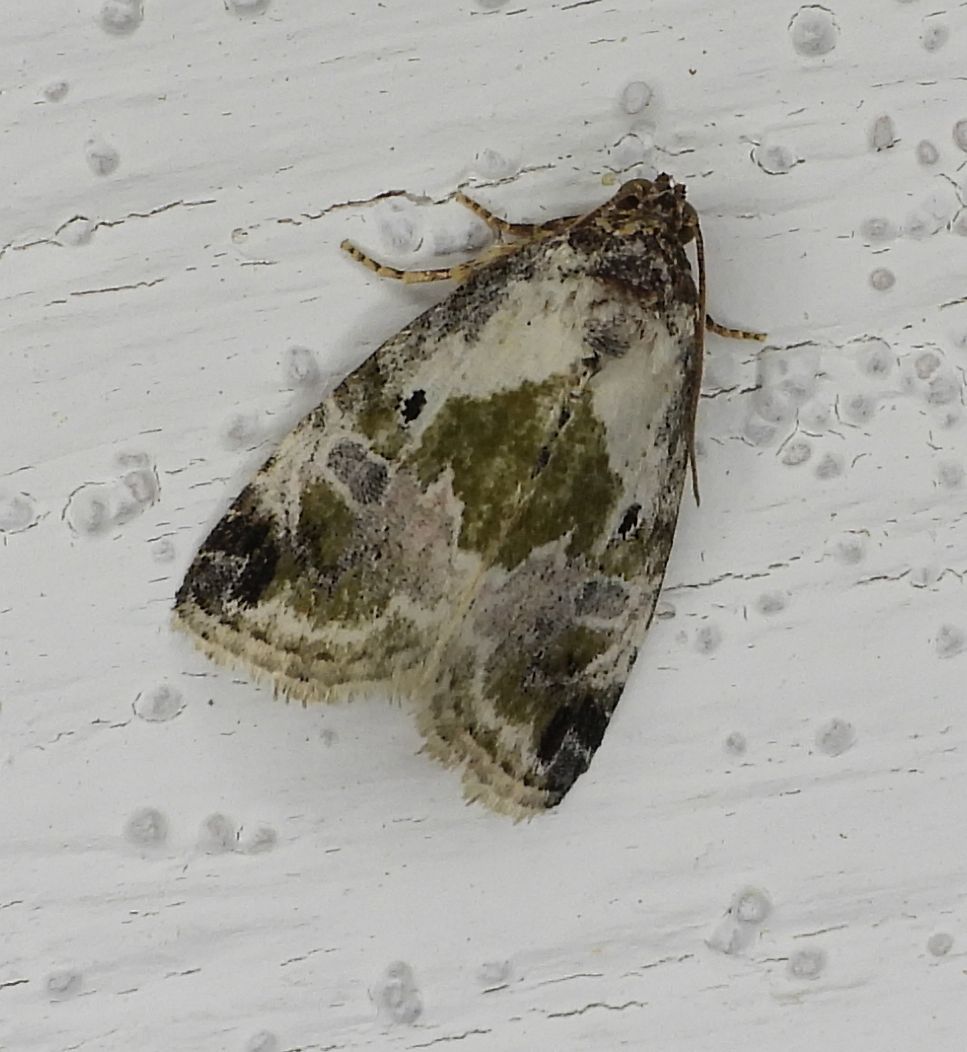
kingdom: Animalia
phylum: Arthropoda
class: Insecta
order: Lepidoptera
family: Noctuidae
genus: Maliattha
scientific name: Maliattha synochitis
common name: Black-dotted glyph
